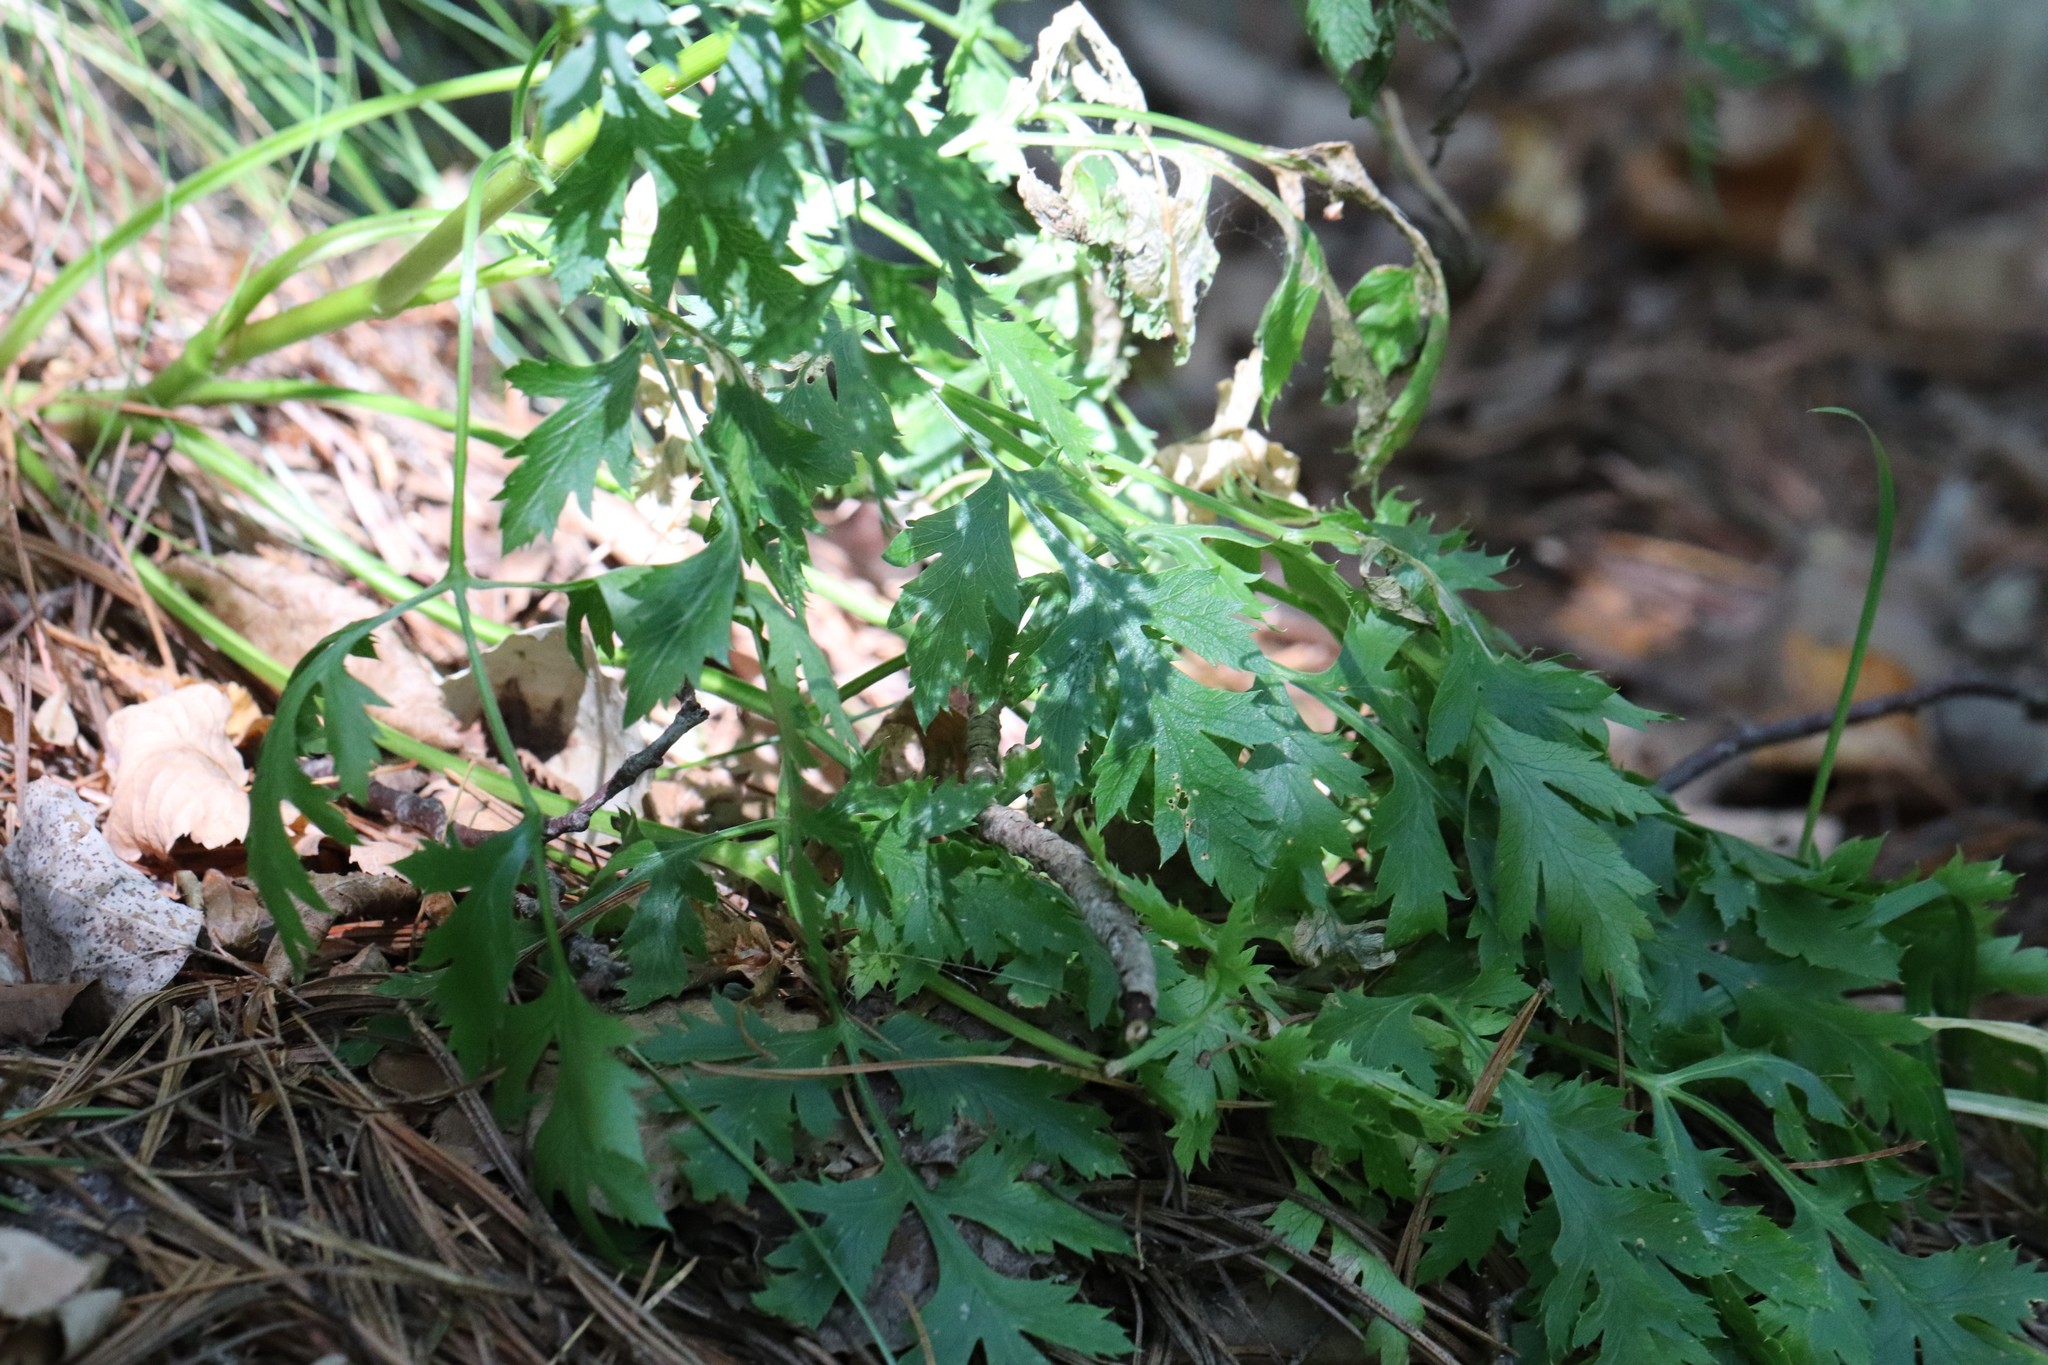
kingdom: Plantae
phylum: Tracheophyta
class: Magnoliopsida
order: Apiales
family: Apiaceae
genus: Kitagawia
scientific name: Kitagawia terebinthacea
